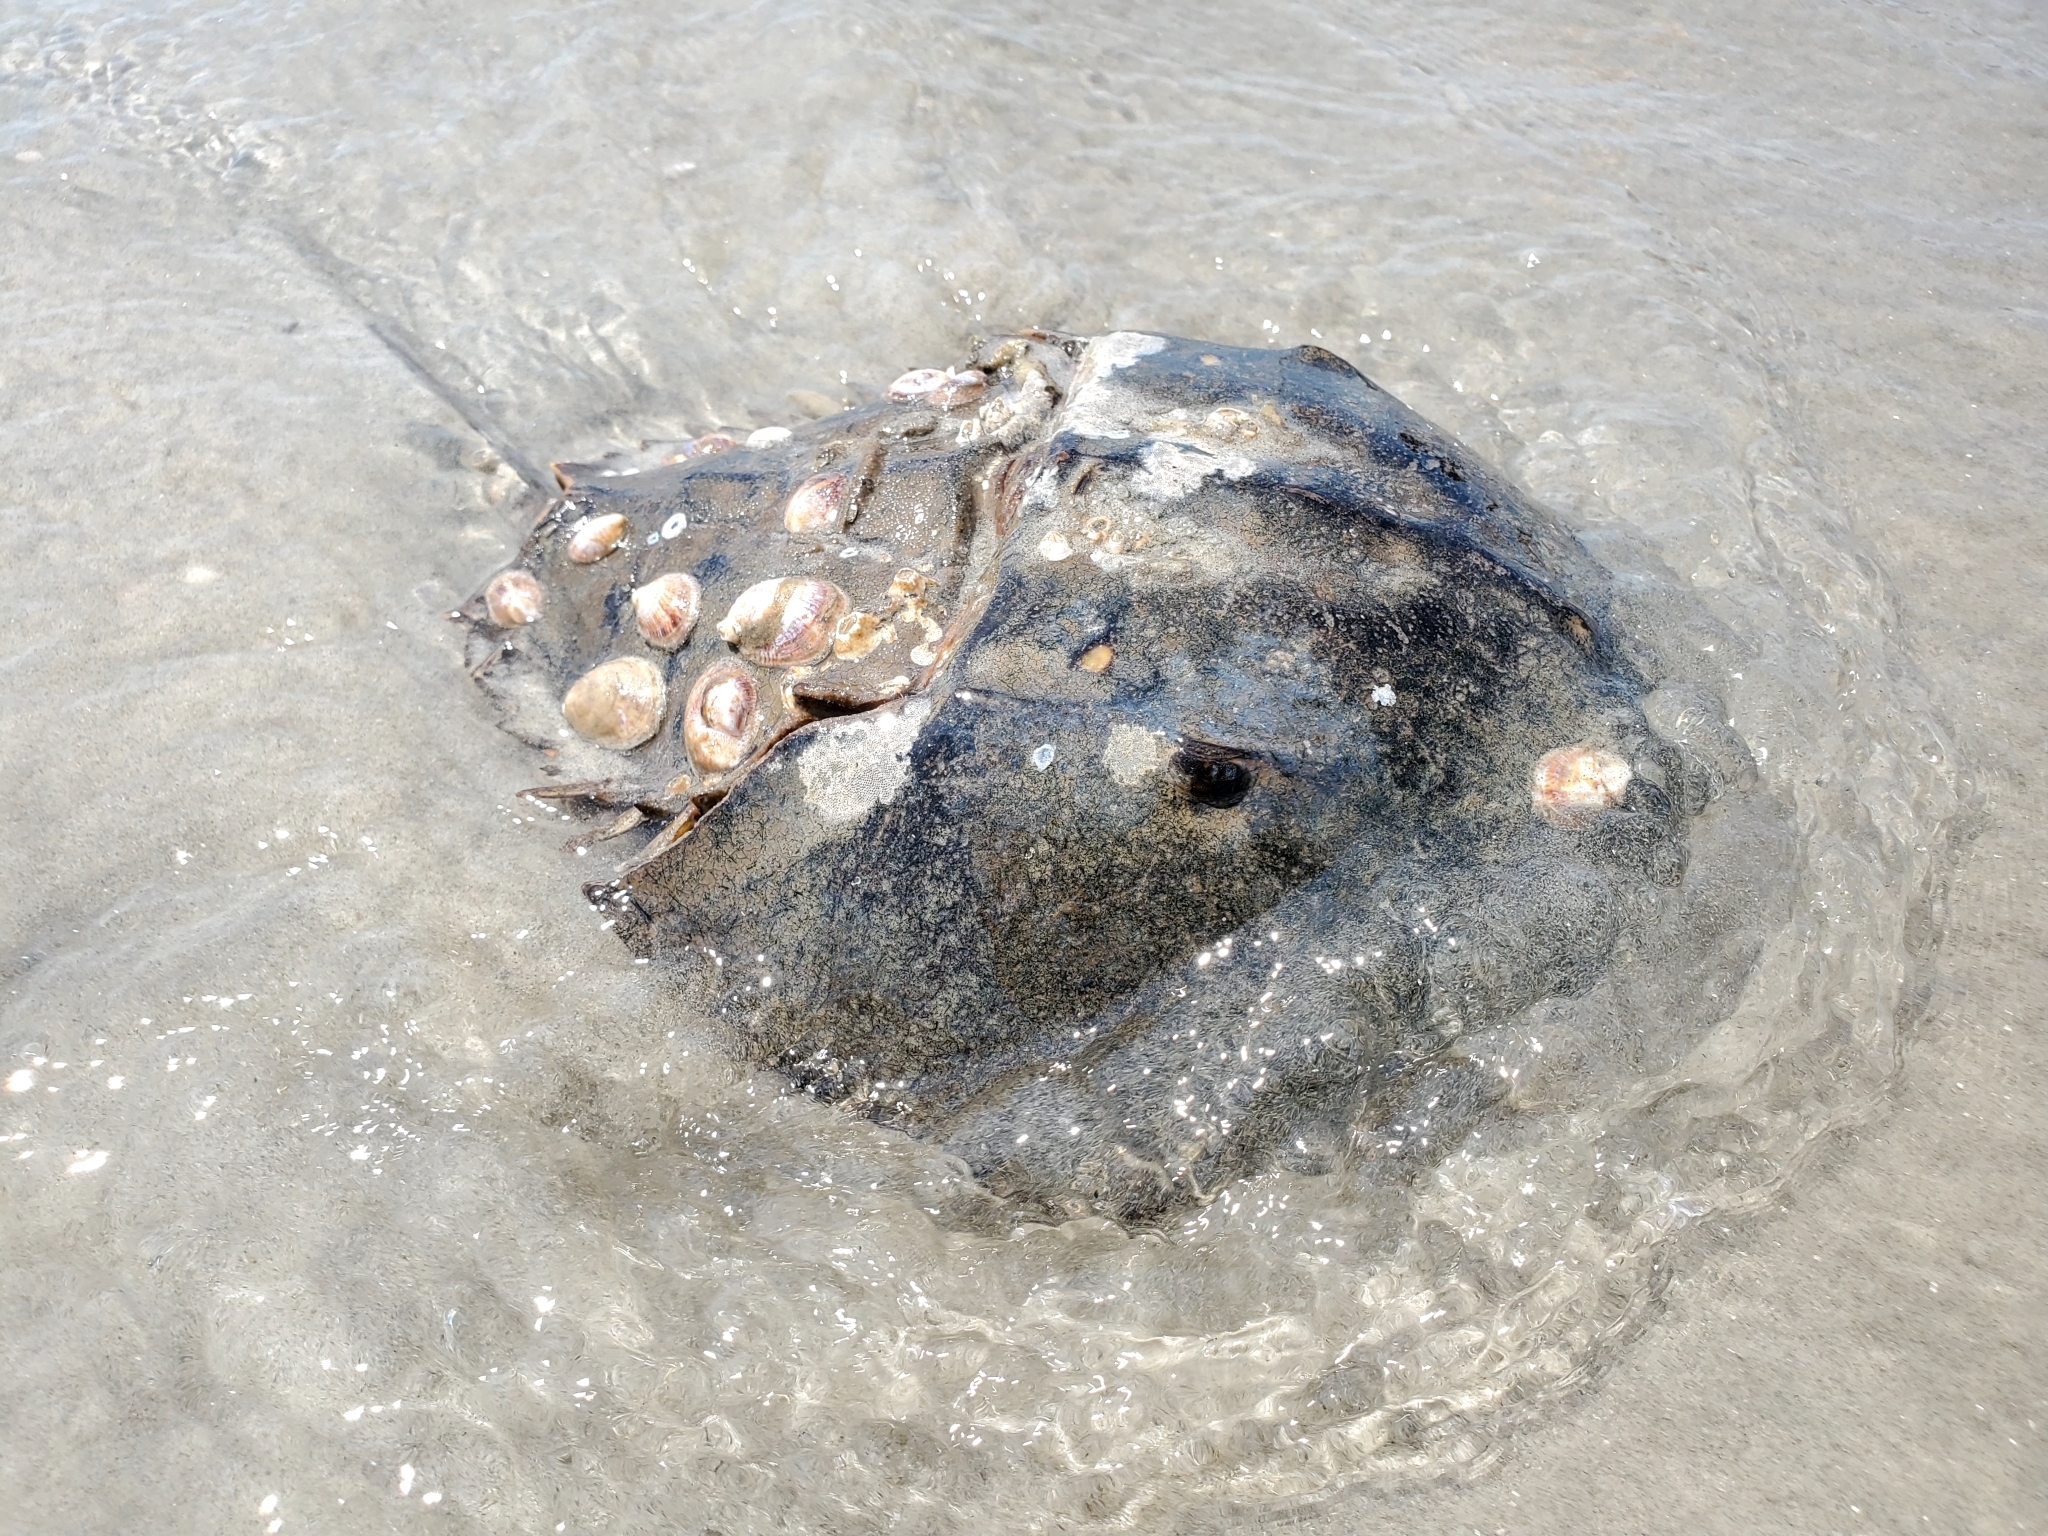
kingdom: Animalia
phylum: Arthropoda
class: Merostomata
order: Xiphosurida
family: Limulidae
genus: Limulus
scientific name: Limulus polyphemus
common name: Horseshoe crab
